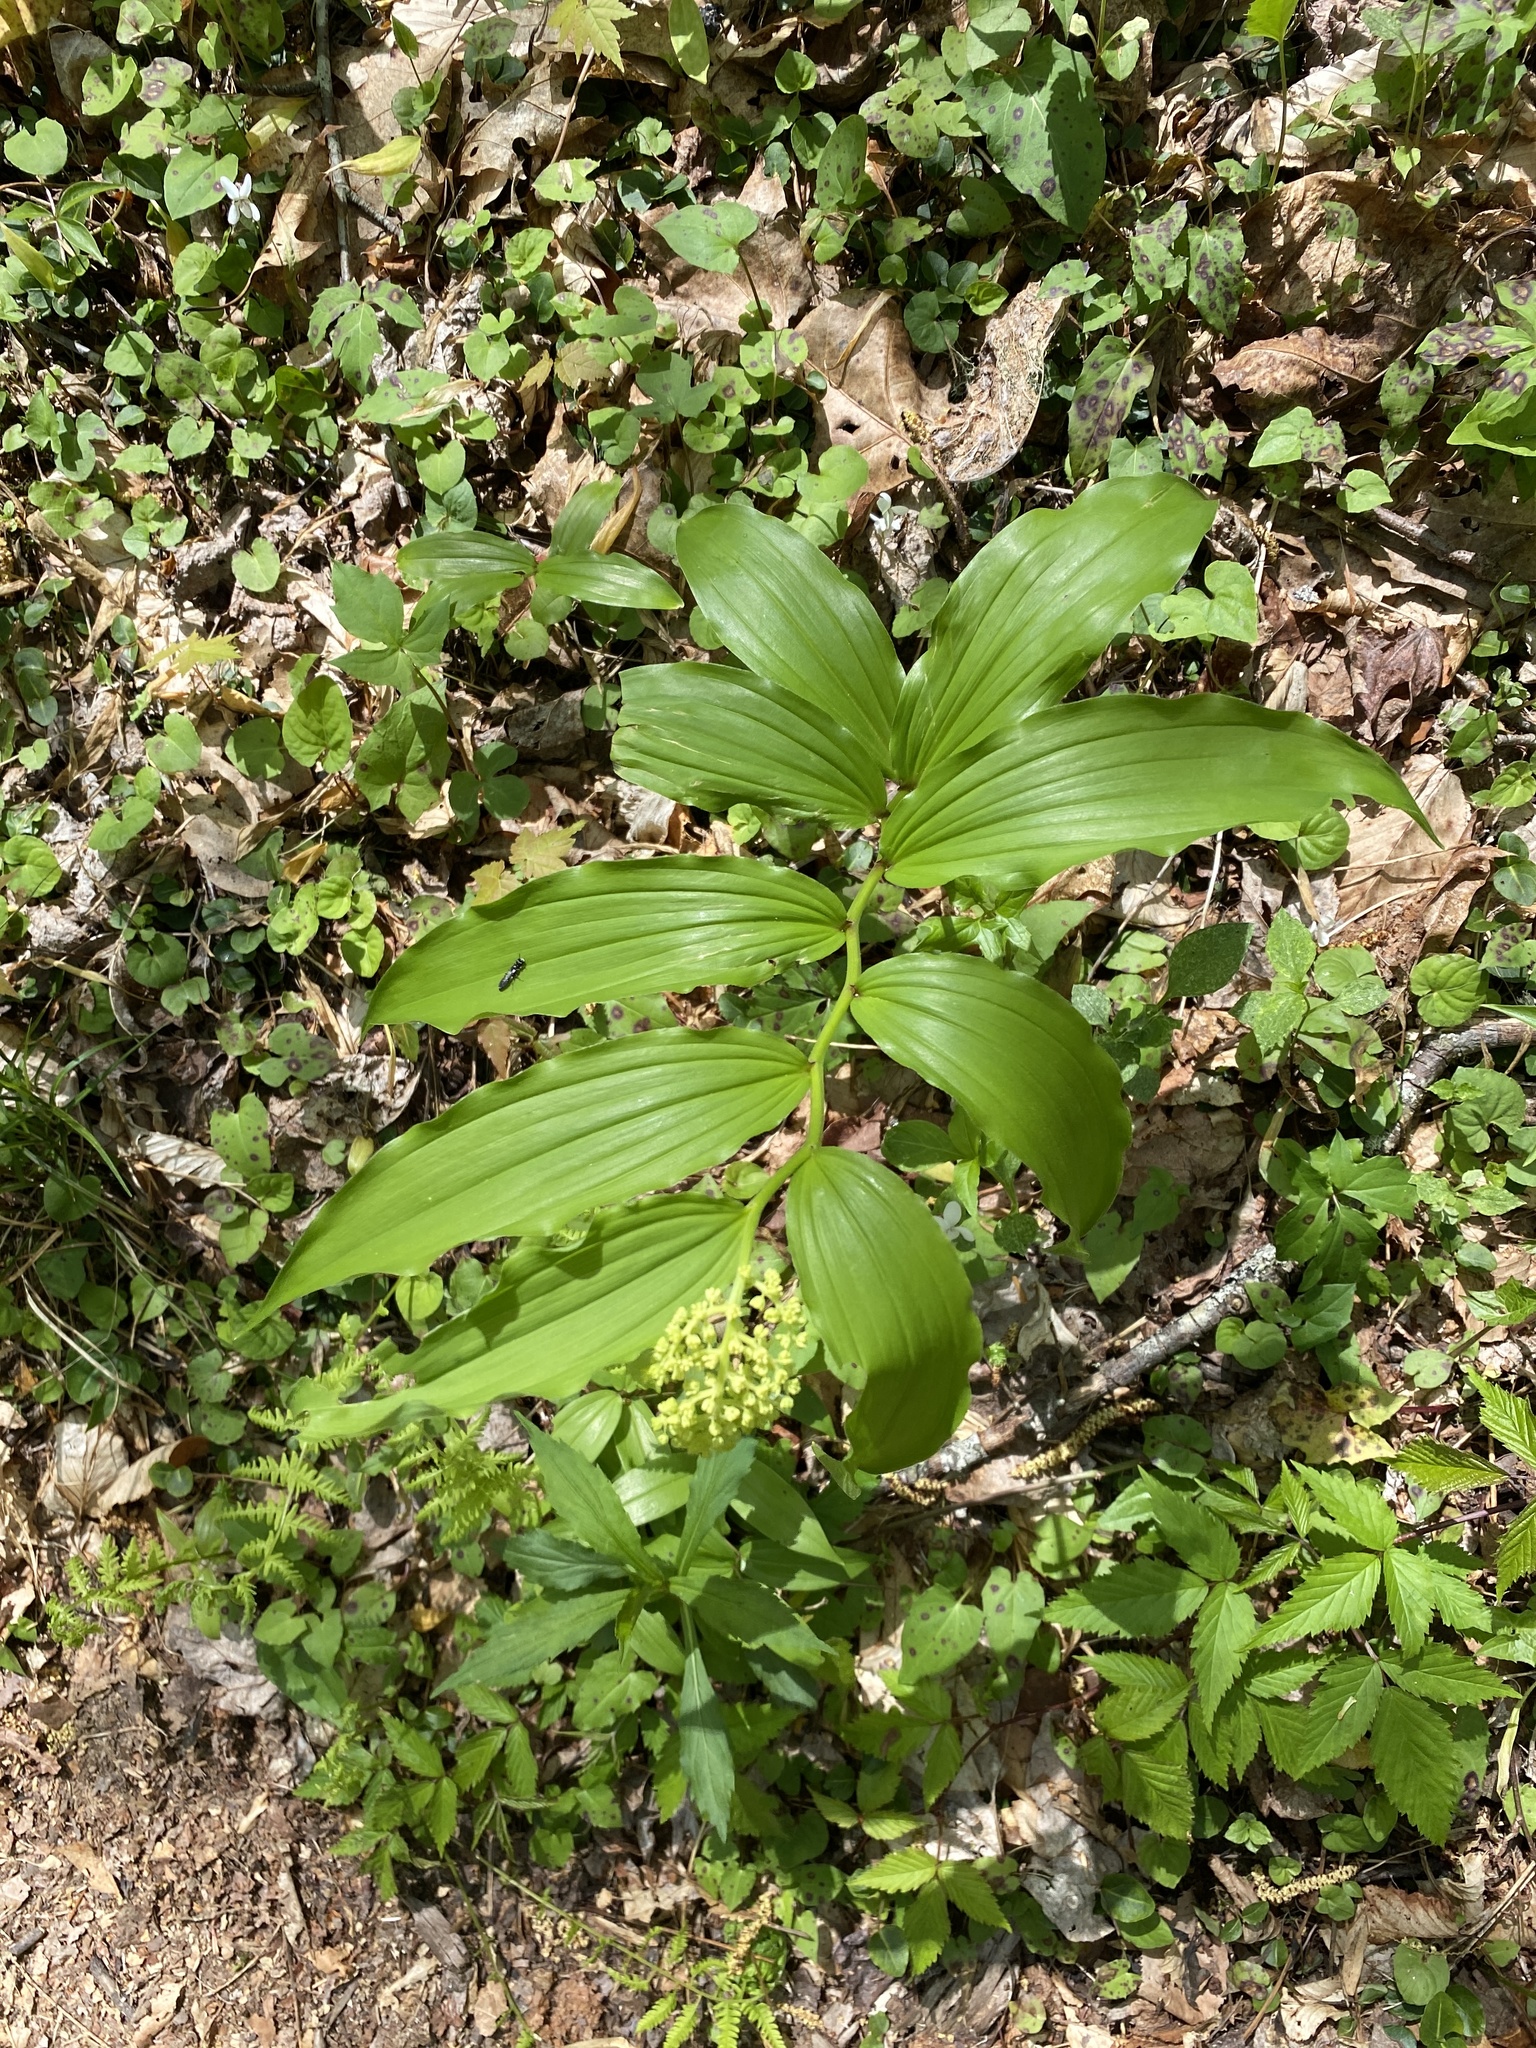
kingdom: Plantae
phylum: Tracheophyta
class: Liliopsida
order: Asparagales
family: Asparagaceae
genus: Maianthemum
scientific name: Maianthemum racemosum
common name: False spikenard
